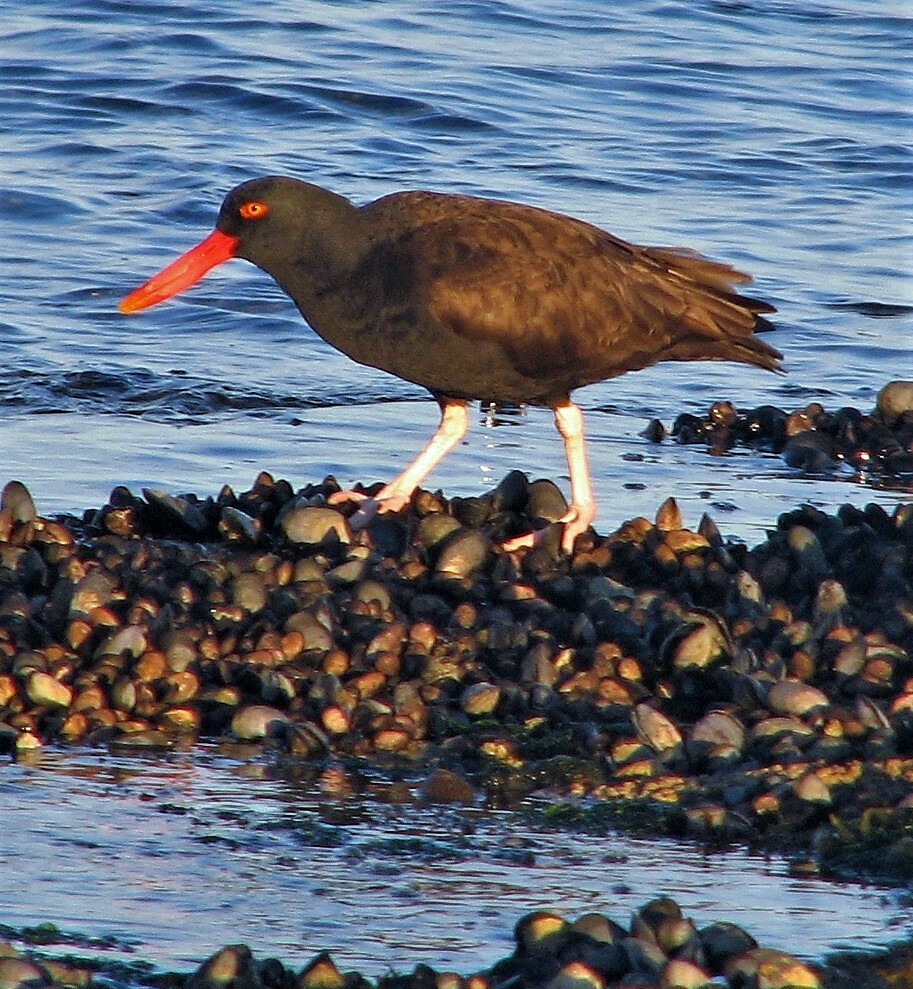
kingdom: Animalia
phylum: Chordata
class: Aves
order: Charadriiformes
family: Haematopodidae
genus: Haematopus
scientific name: Haematopus ater
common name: Blackish oystercatcher
